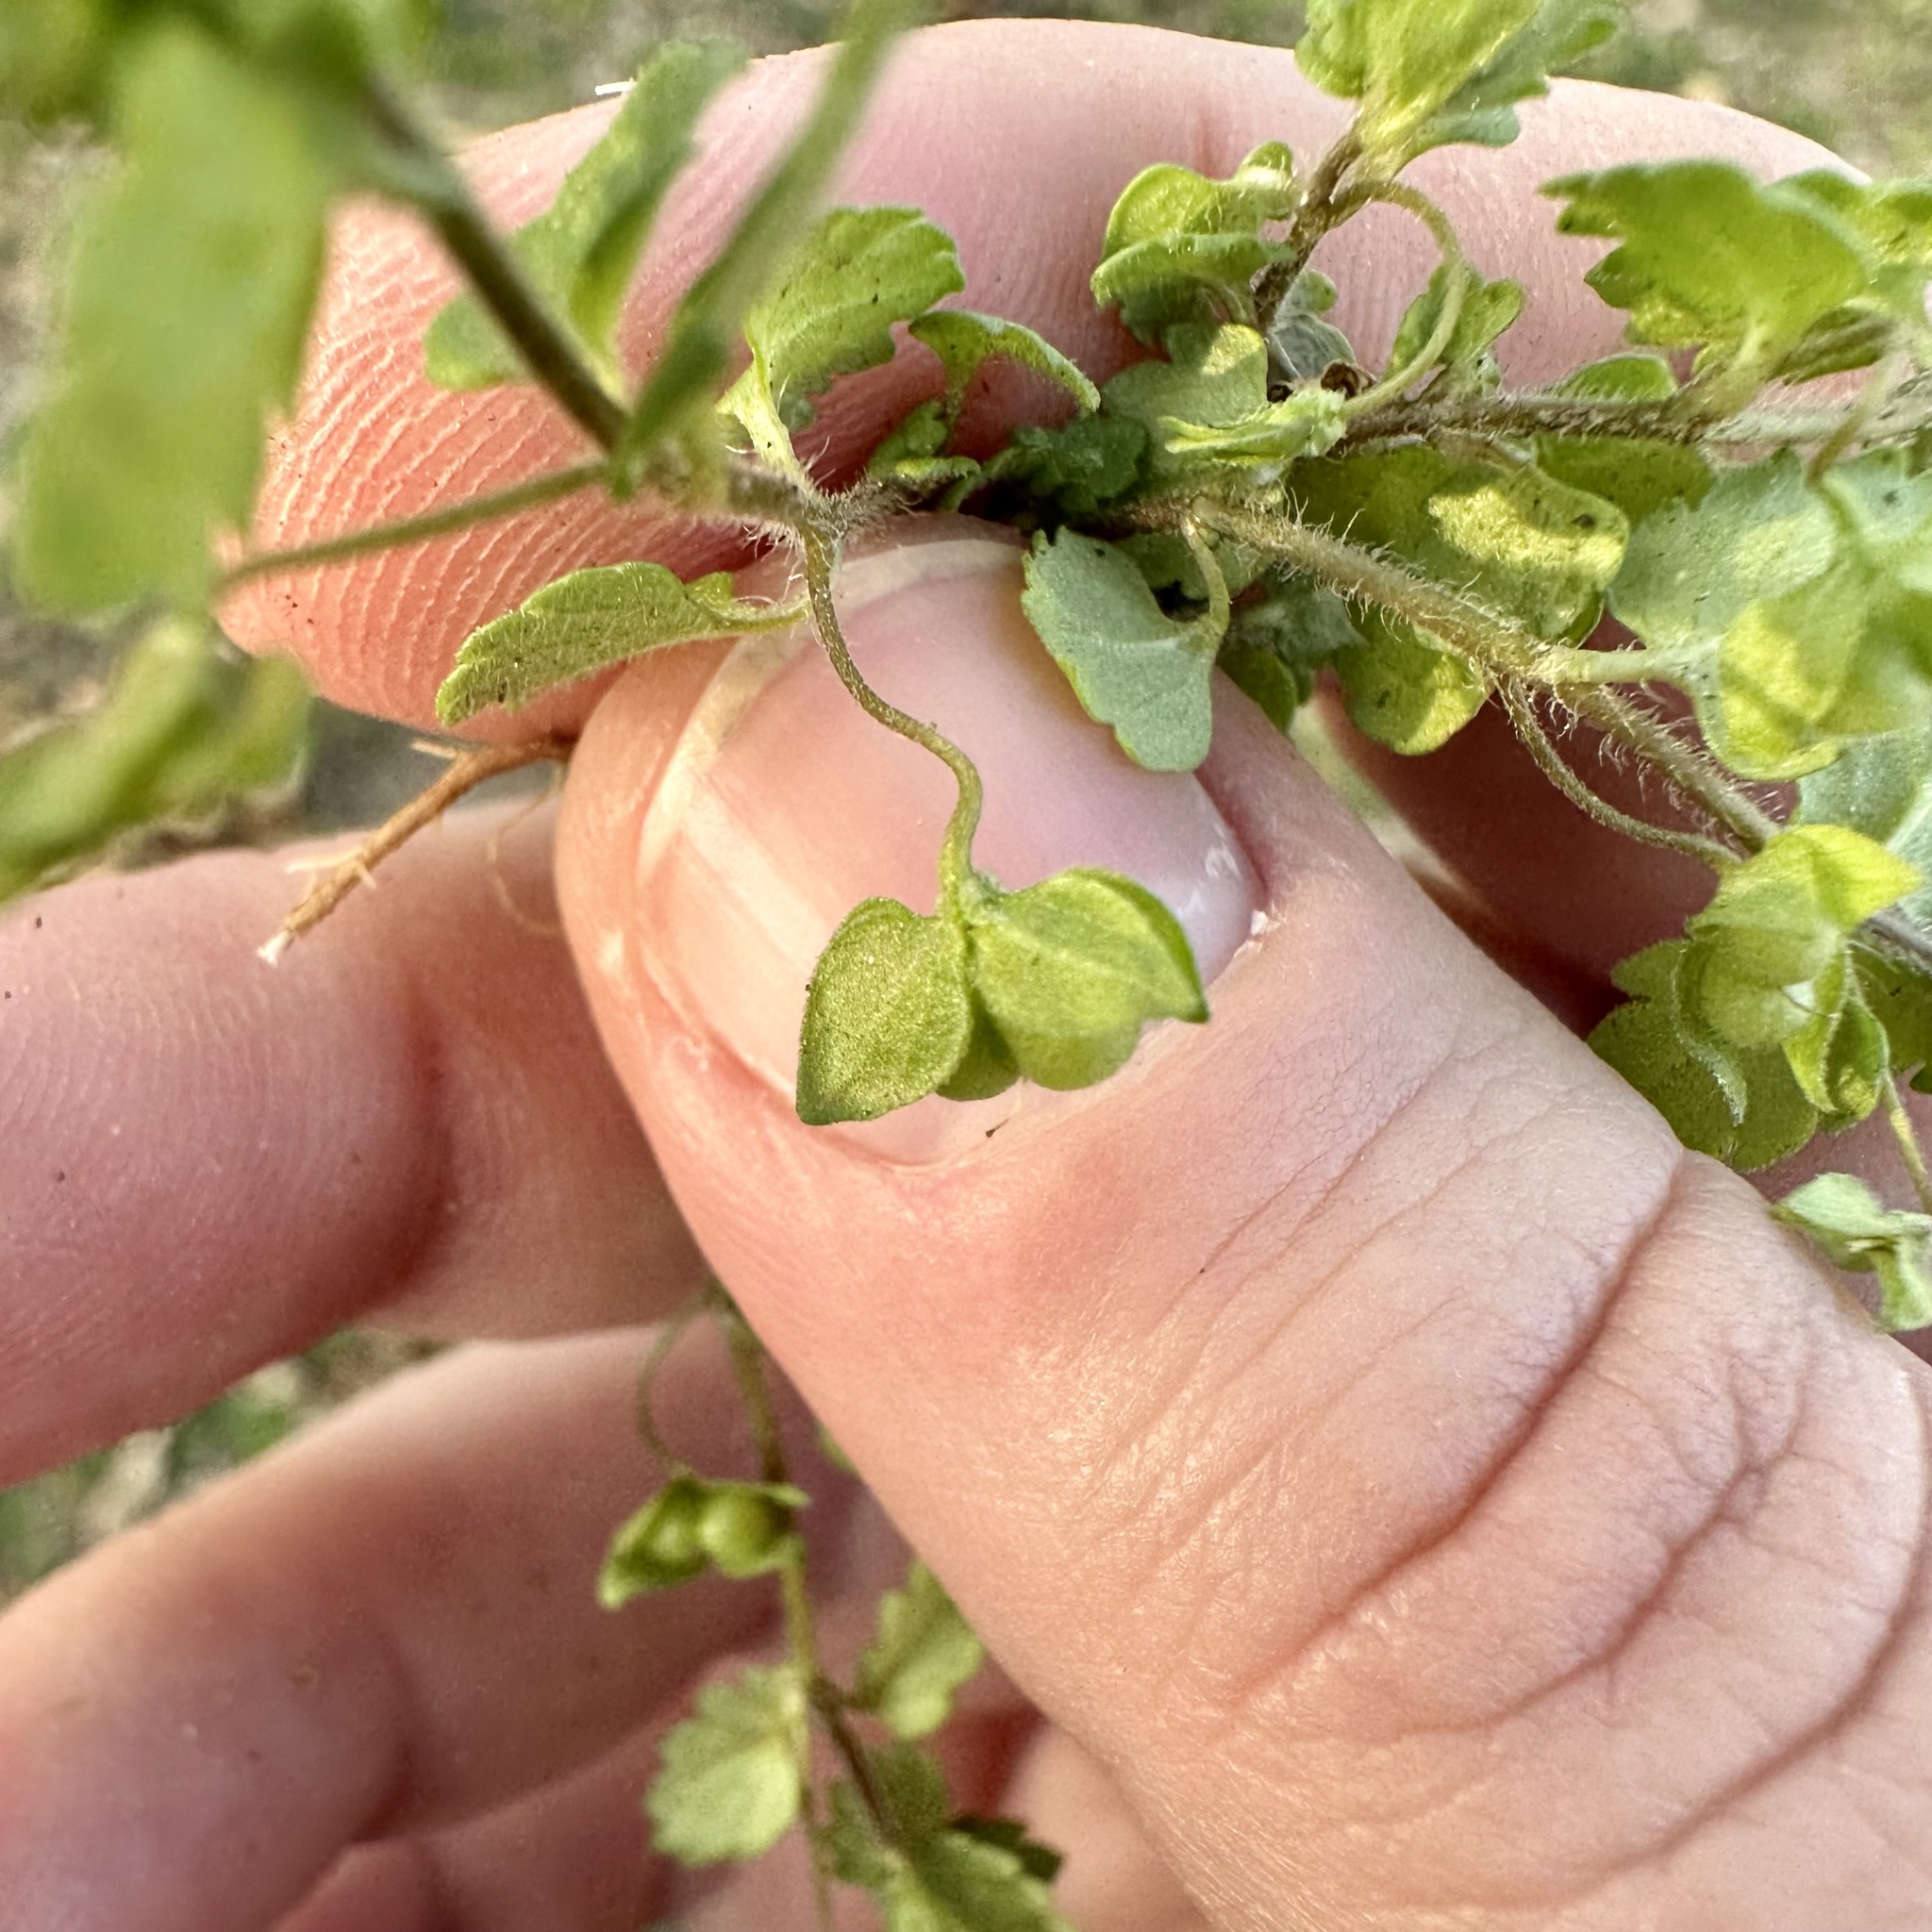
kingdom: Plantae
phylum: Tracheophyta
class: Magnoliopsida
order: Lamiales
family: Plantaginaceae
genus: Veronica
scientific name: Veronica polita
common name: Grey field-speedwell
